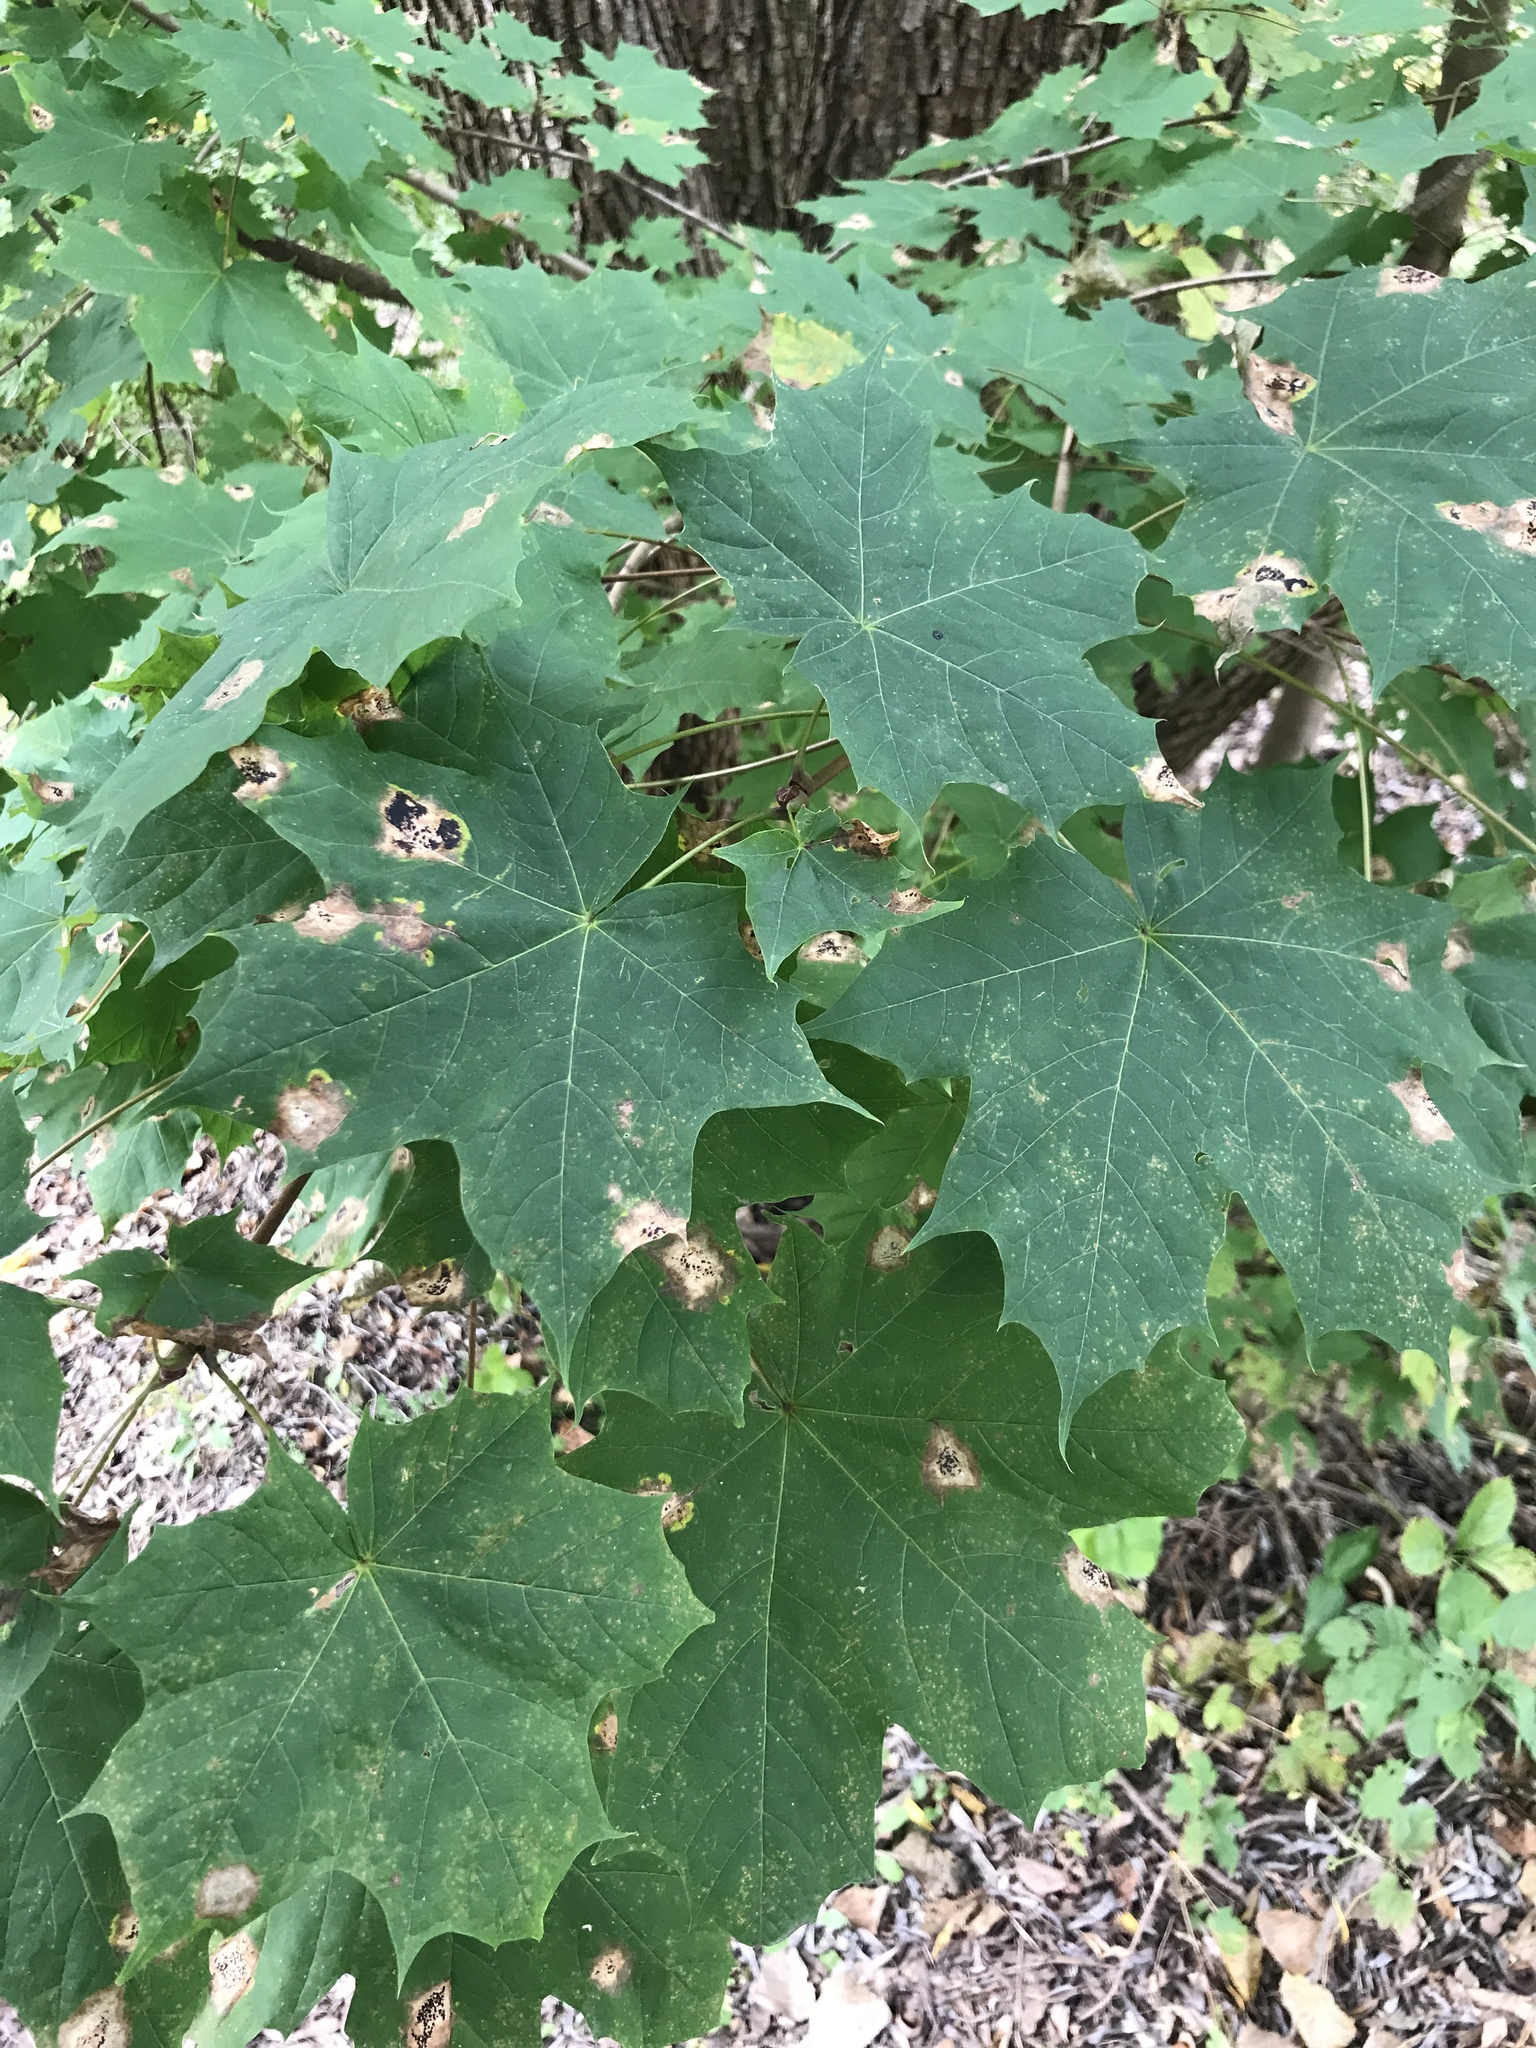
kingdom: Plantae
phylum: Tracheophyta
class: Magnoliopsida
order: Sapindales
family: Sapindaceae
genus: Acer
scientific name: Acer platanoides
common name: Norway maple
